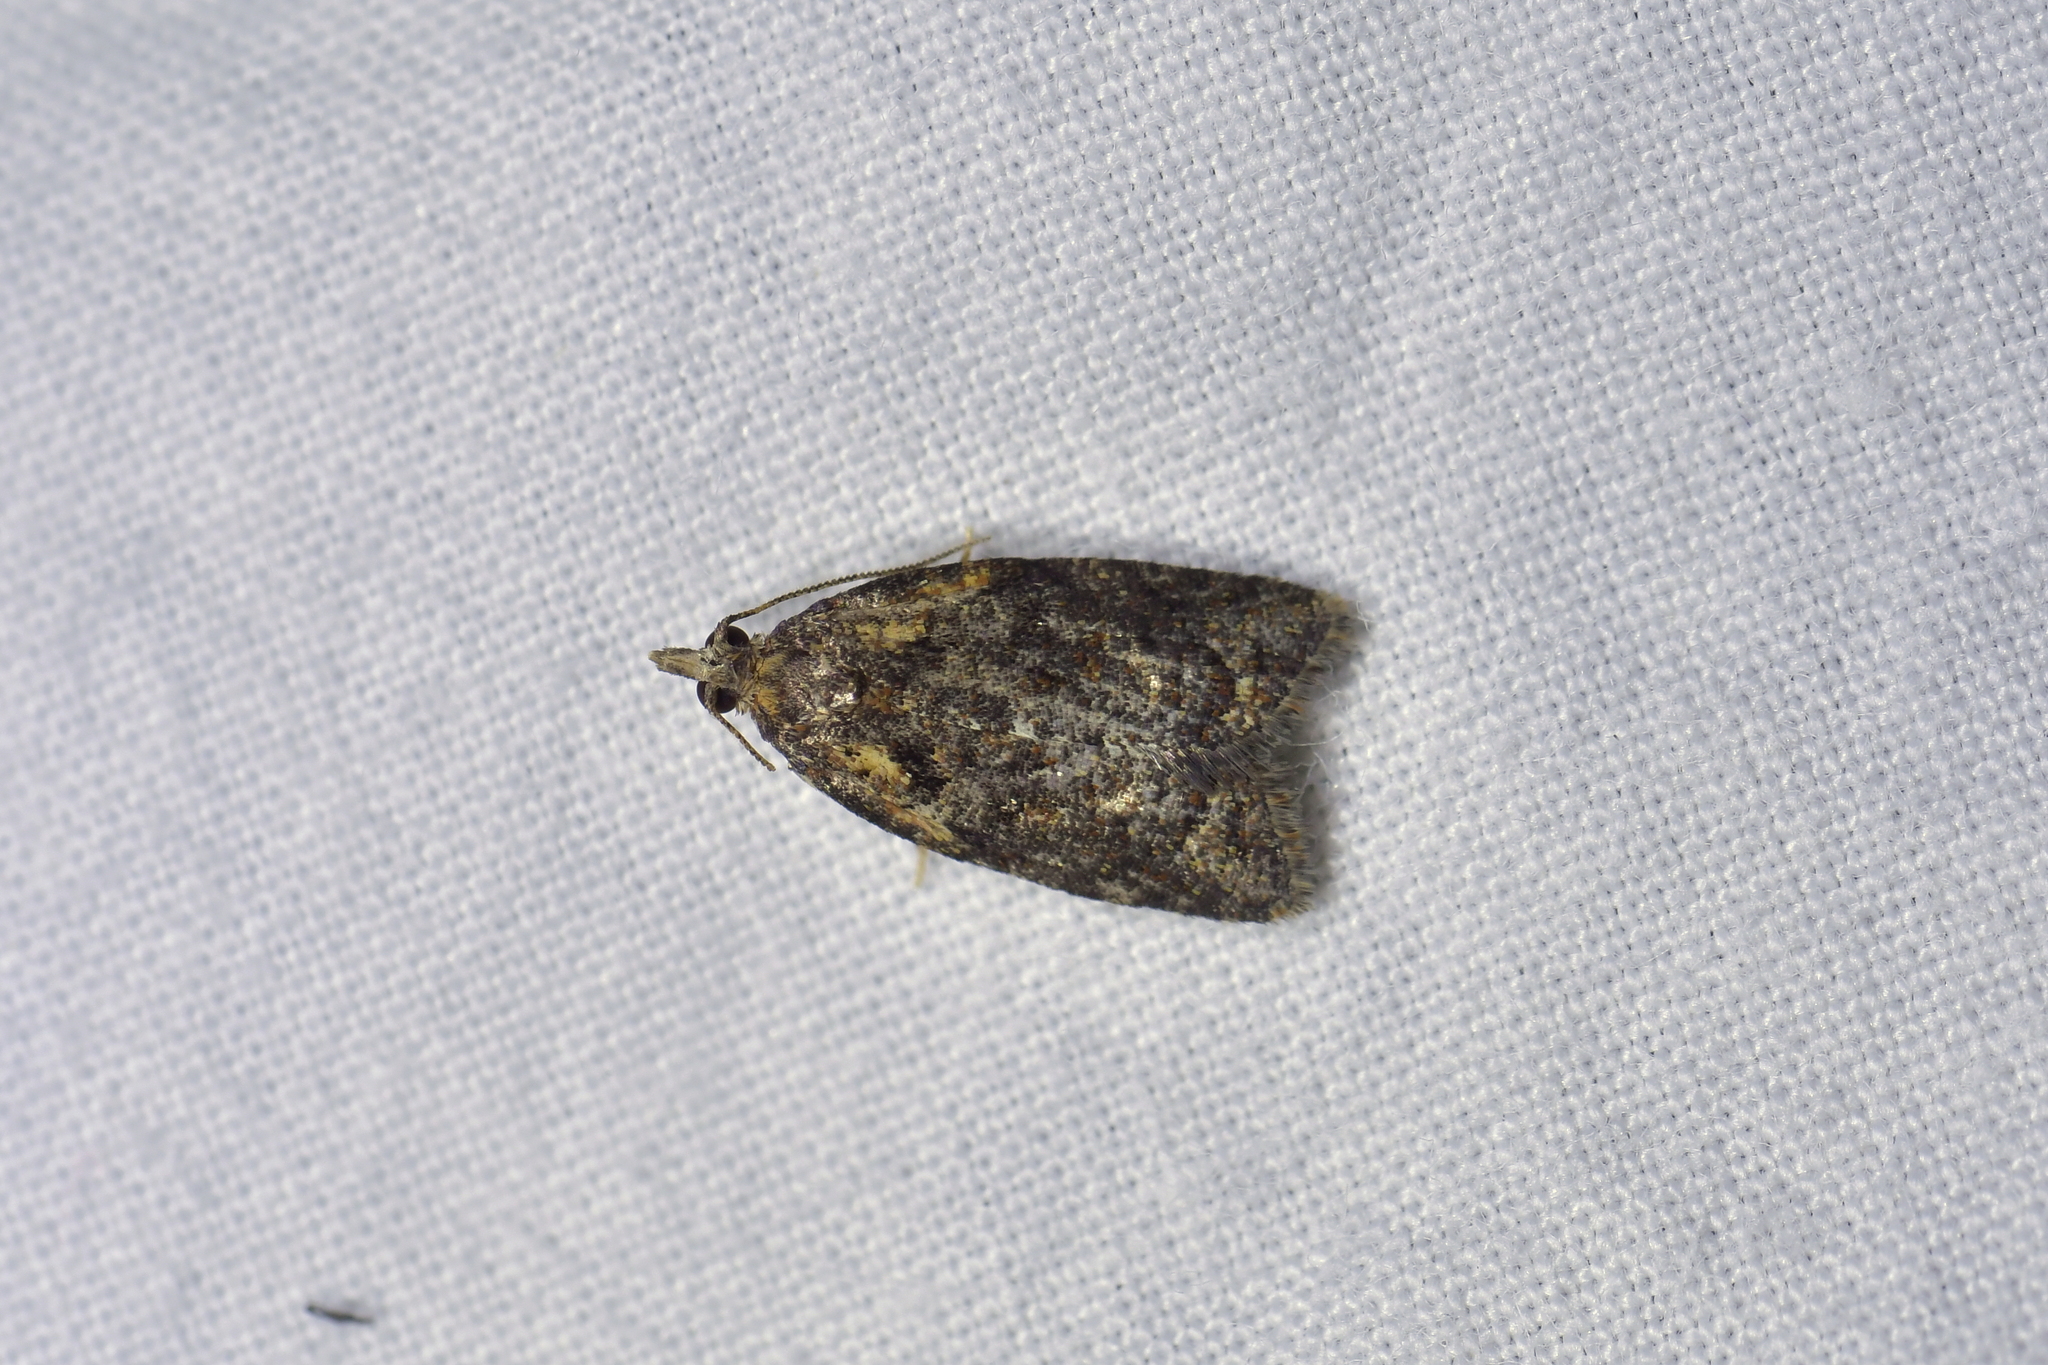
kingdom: Animalia
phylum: Arthropoda
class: Insecta
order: Lepidoptera
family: Tortricidae
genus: Capua
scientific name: Capua intractana
